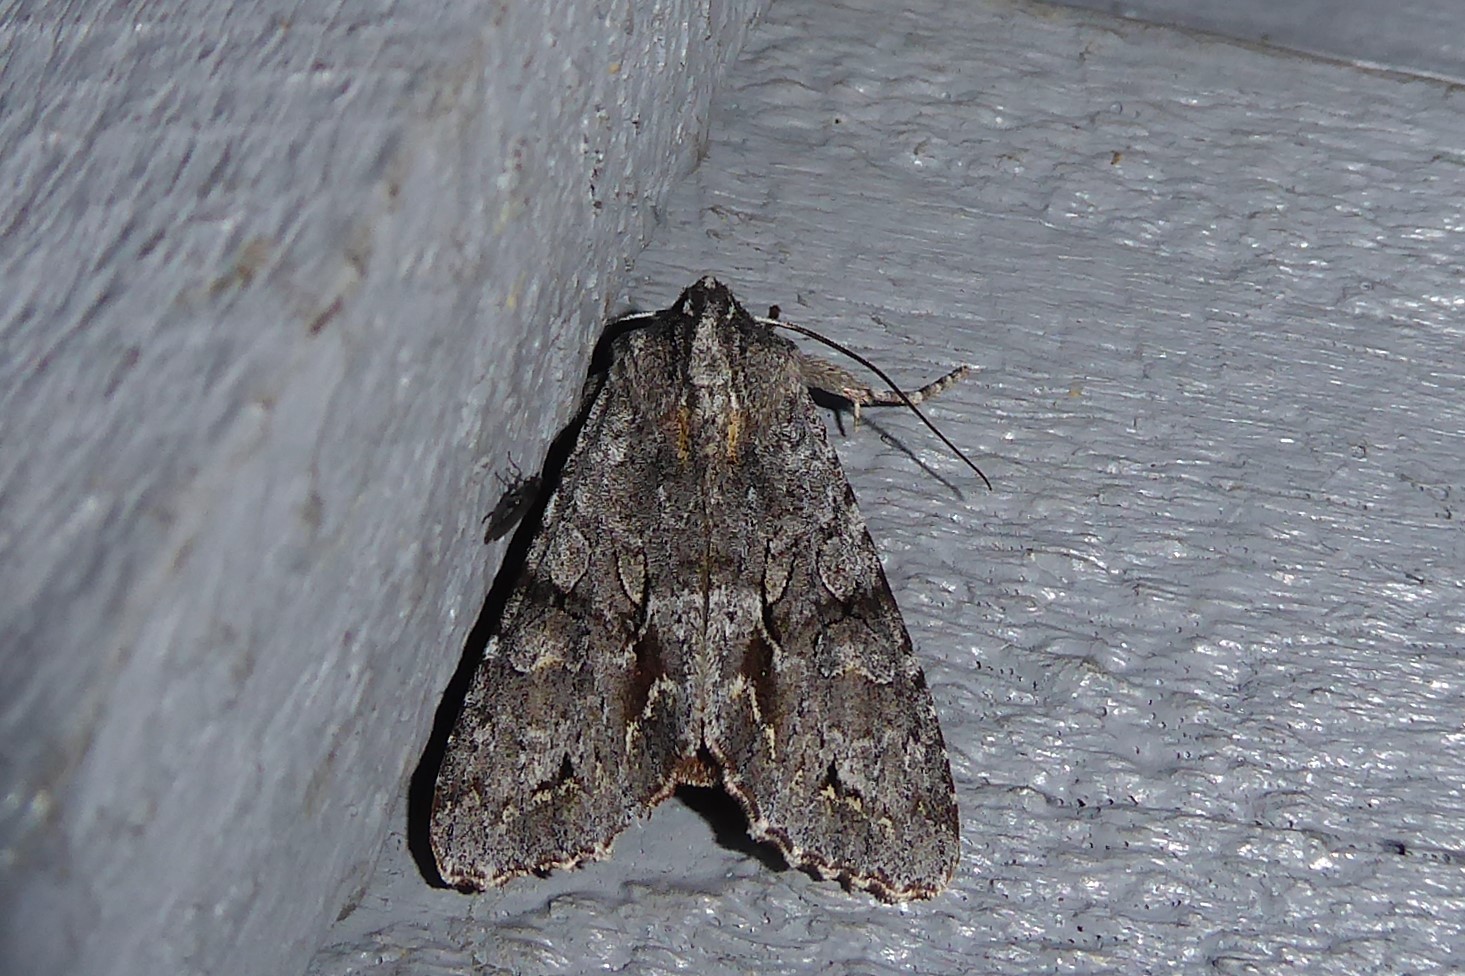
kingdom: Animalia
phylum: Arthropoda
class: Insecta
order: Lepidoptera
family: Noctuidae
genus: Ichneutica
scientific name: Ichneutica
